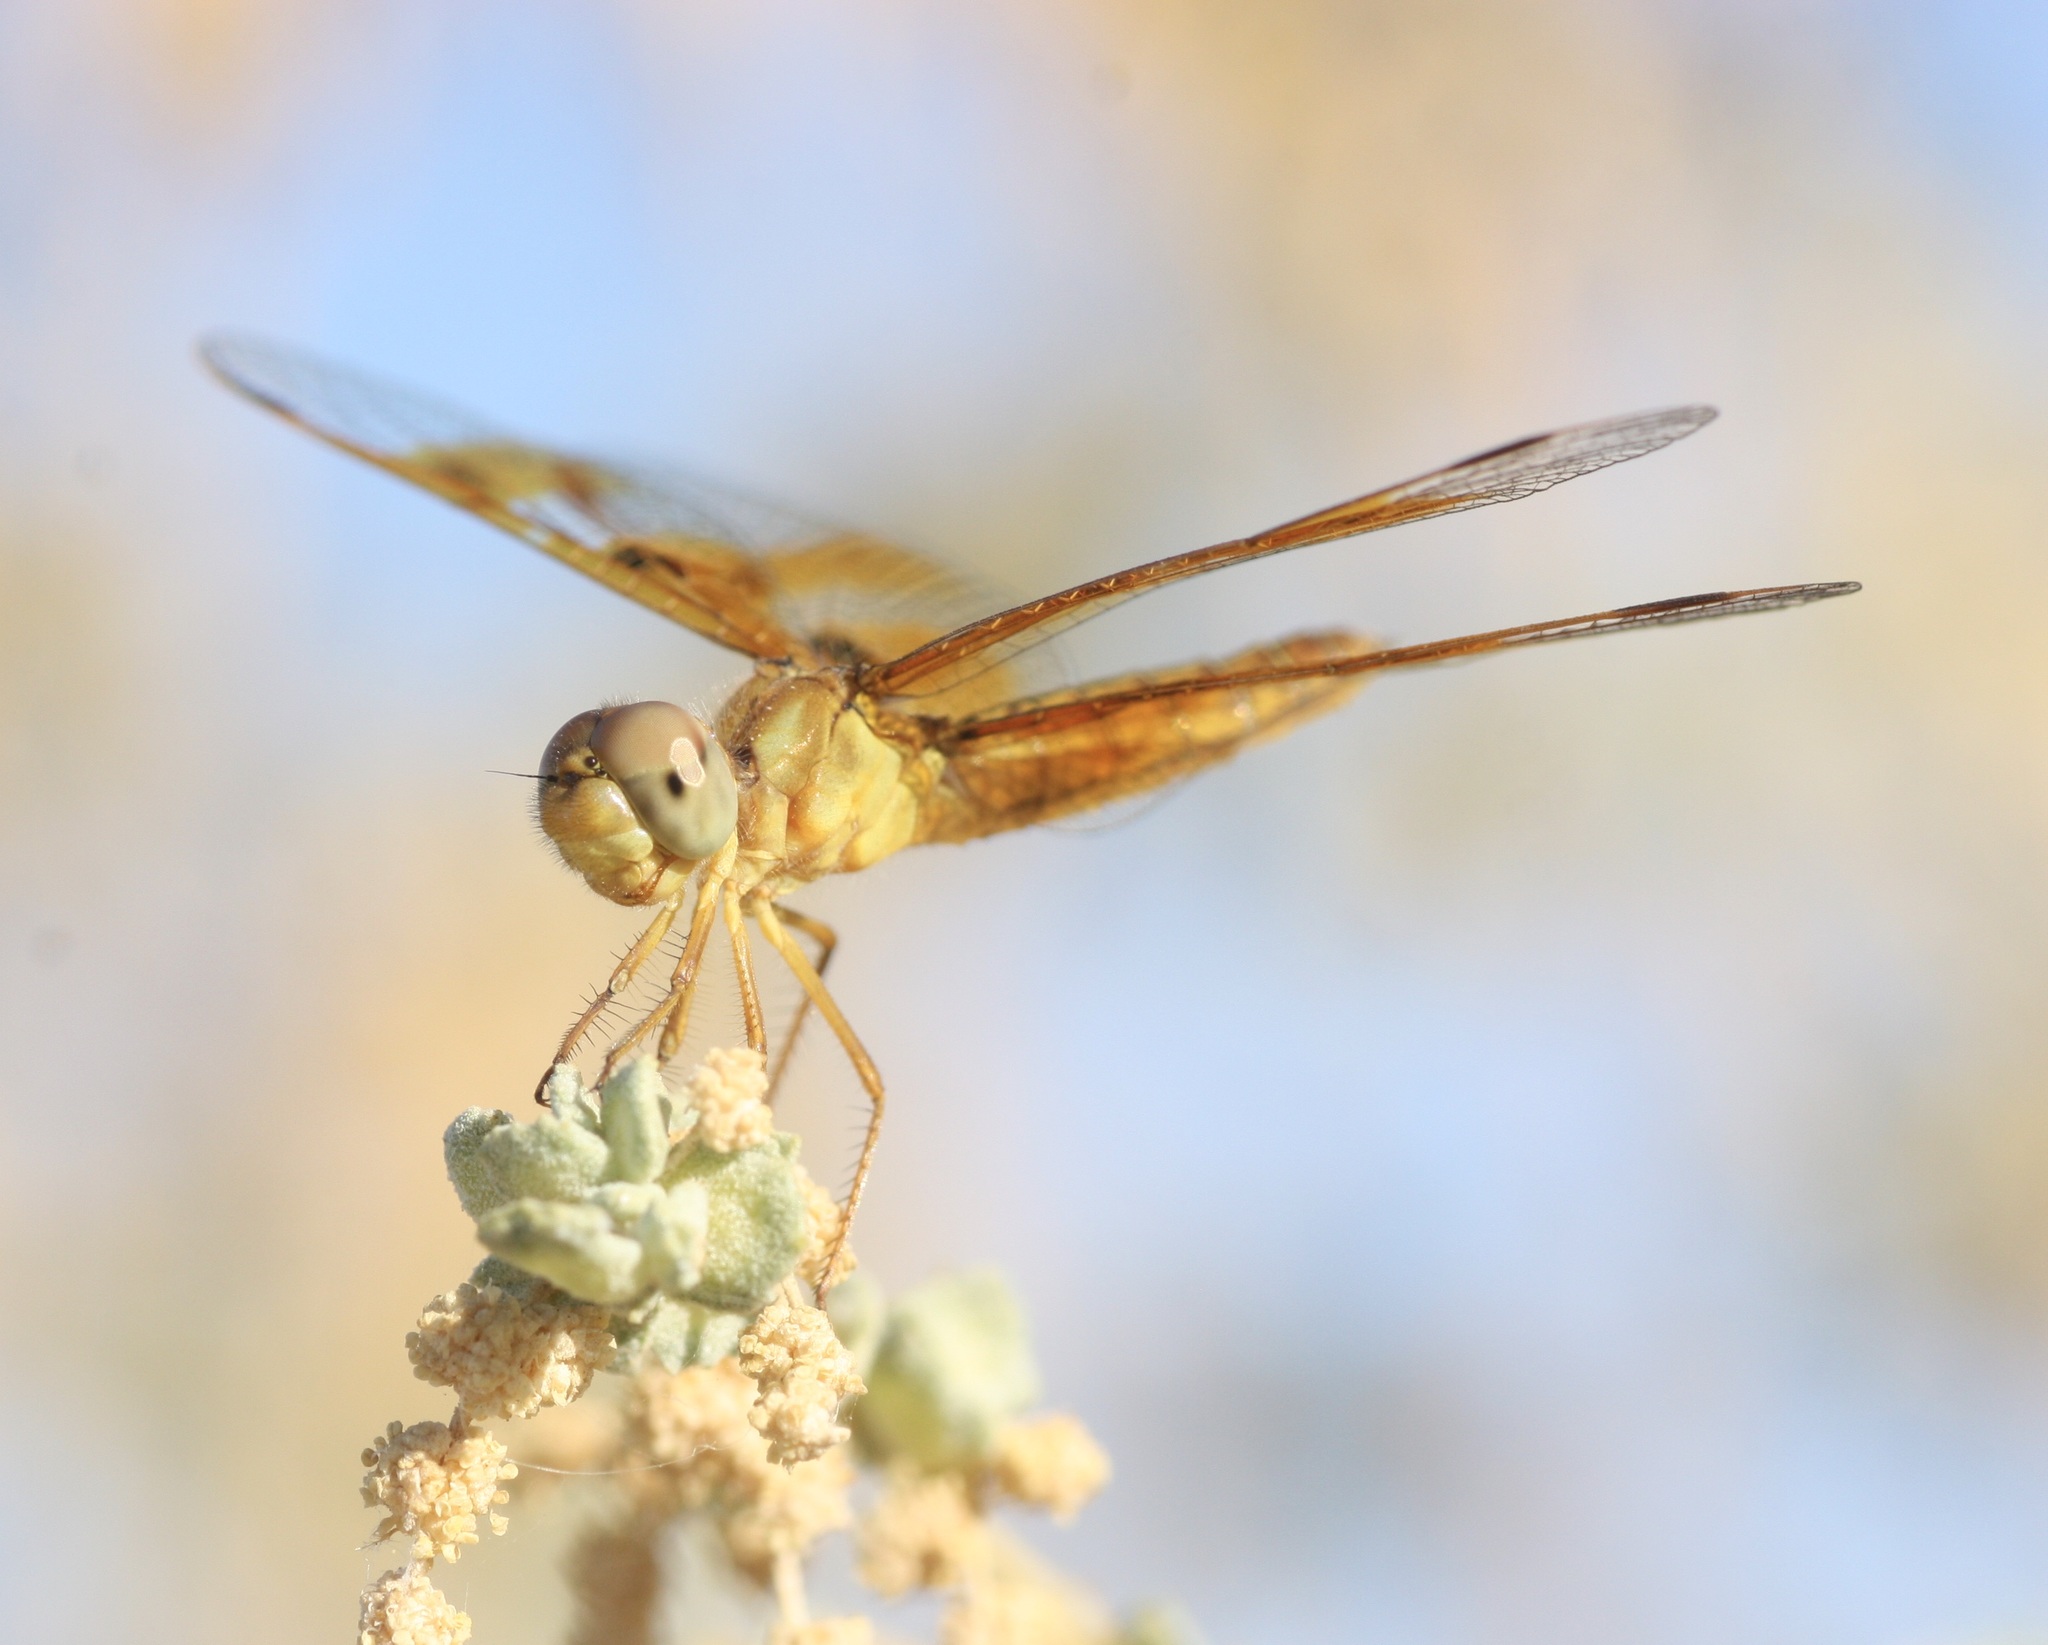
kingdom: Animalia
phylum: Arthropoda
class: Insecta
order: Odonata
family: Libellulidae
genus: Perithemis
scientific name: Perithemis intensa
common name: Mexican amberwing
